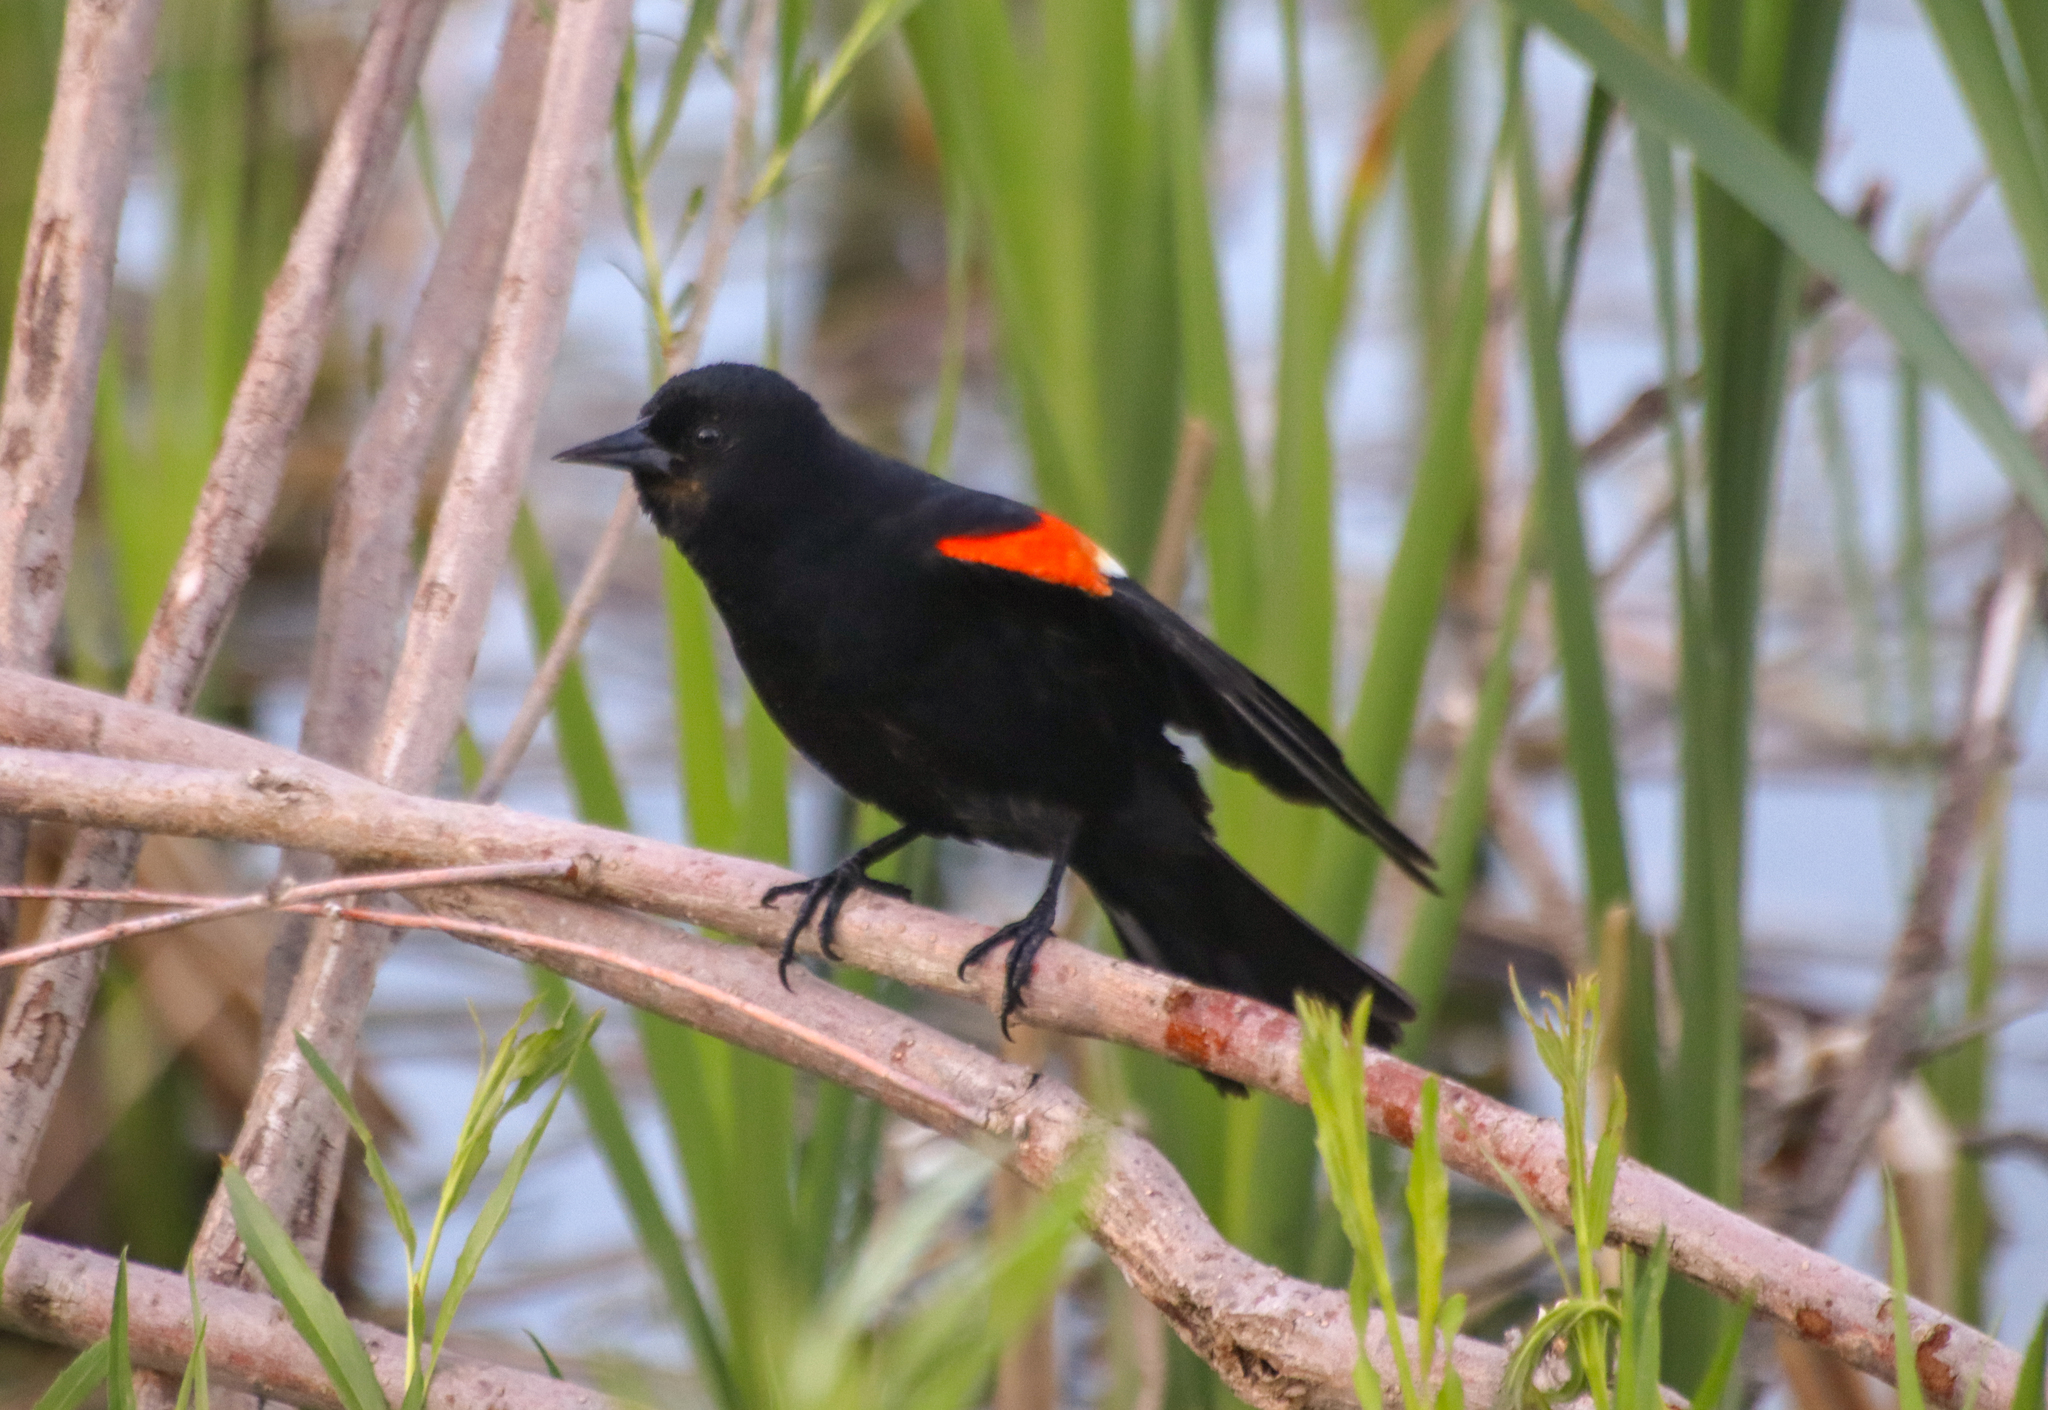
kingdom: Animalia
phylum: Chordata
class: Aves
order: Passeriformes
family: Icteridae
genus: Agelaius
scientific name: Agelaius phoeniceus
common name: Red-winged blackbird
